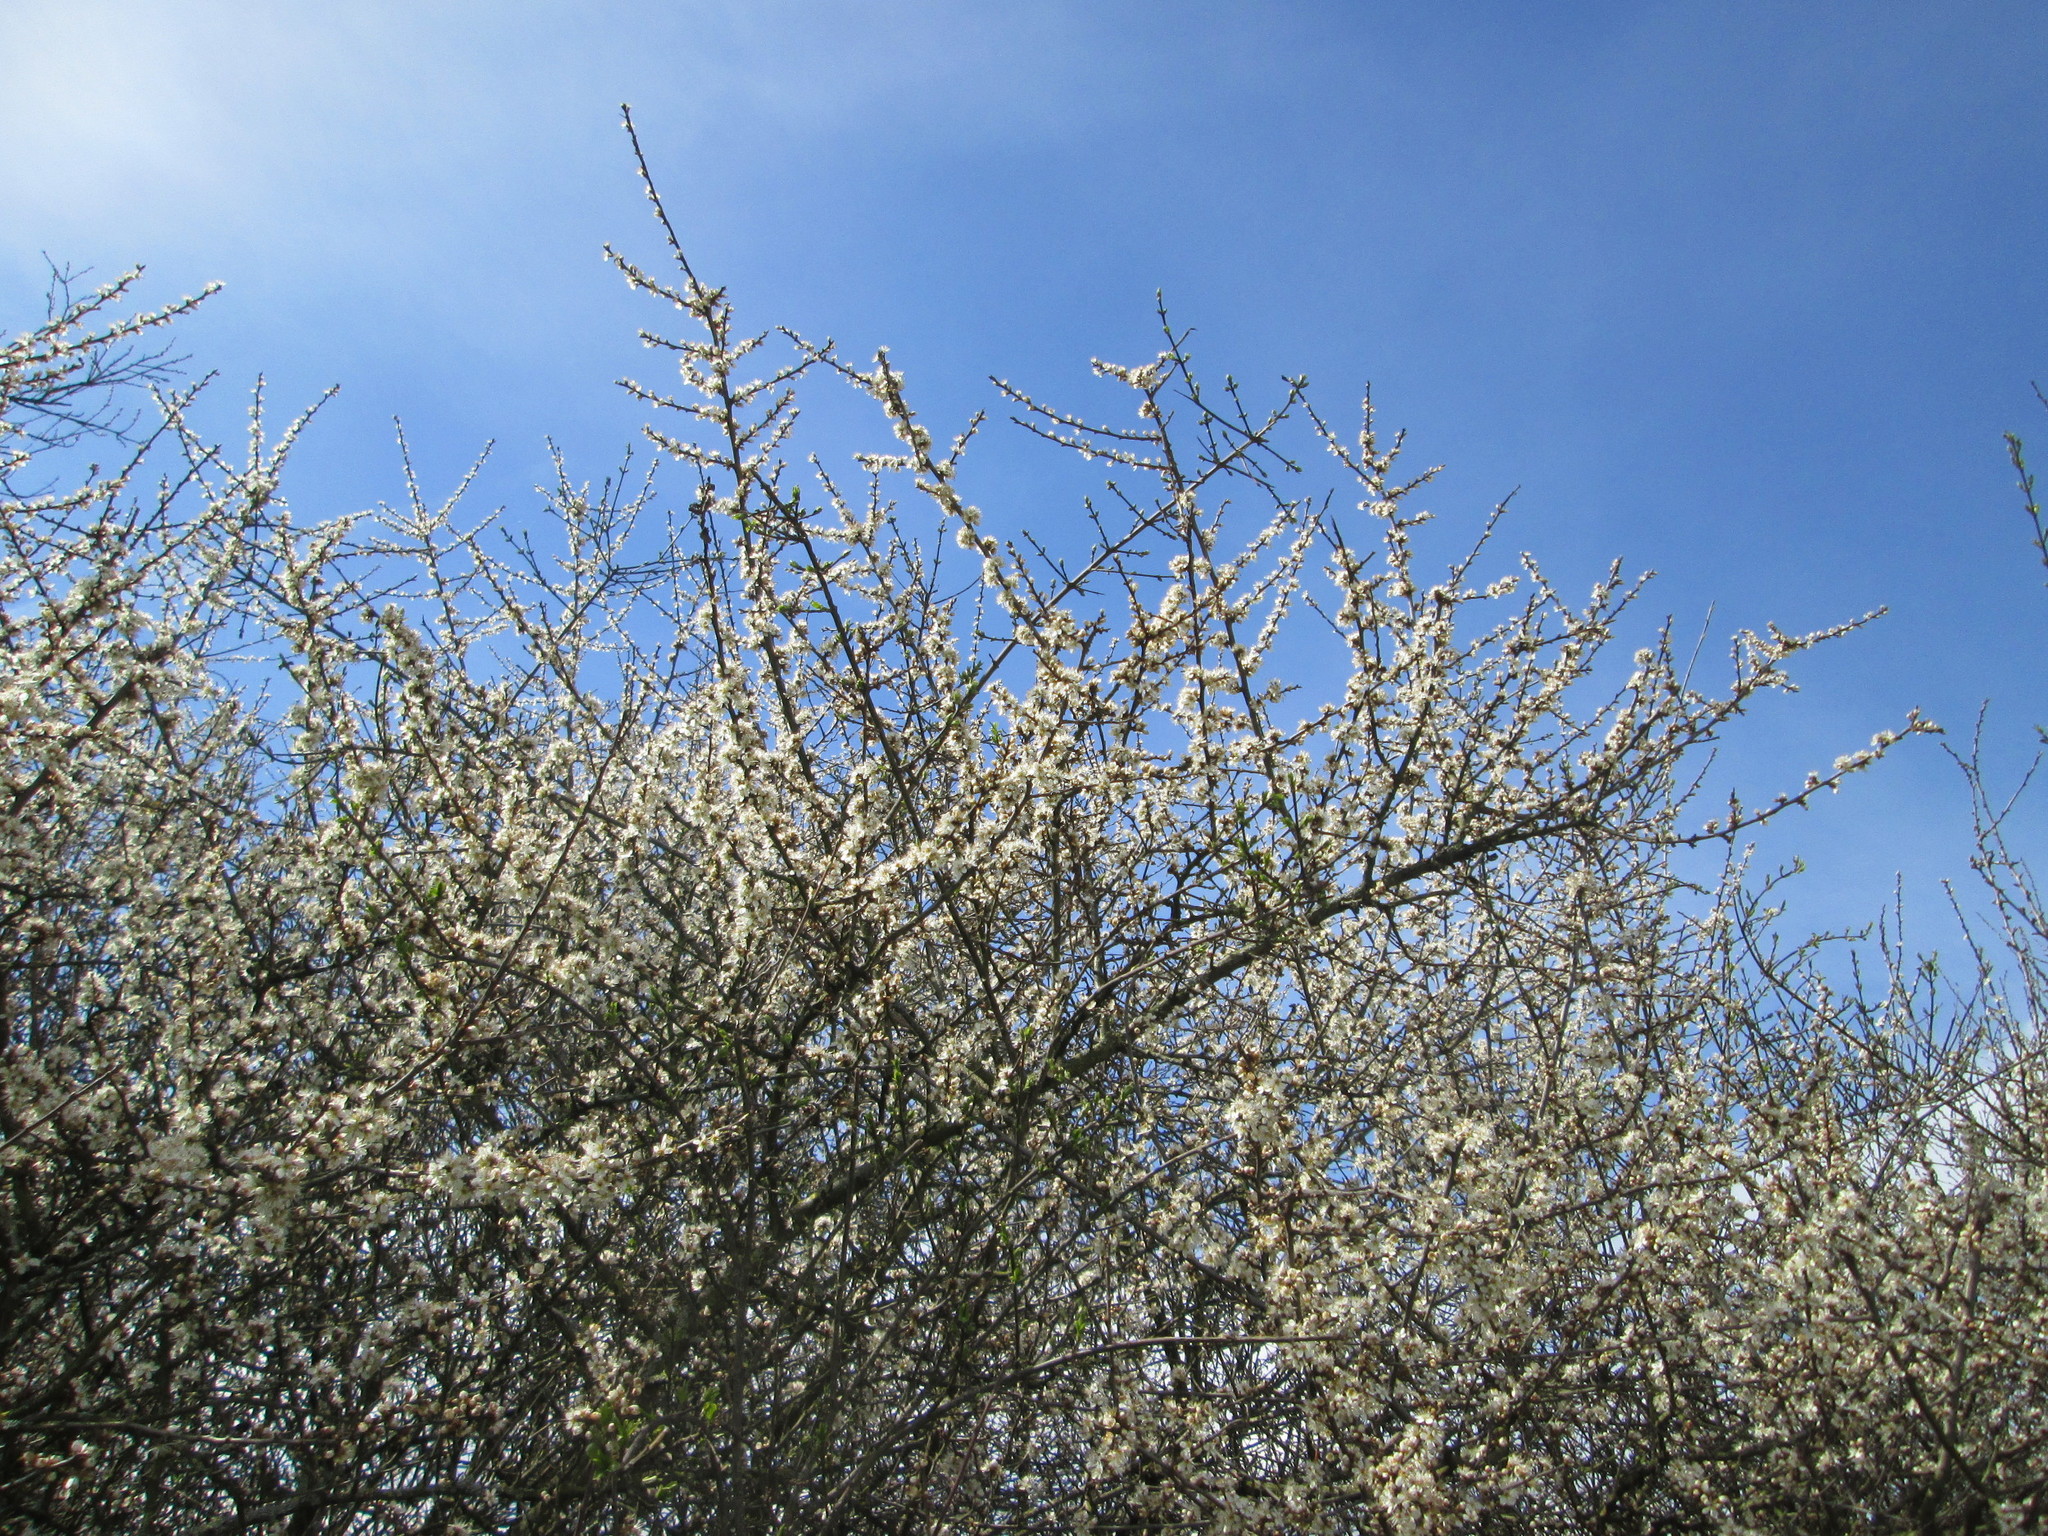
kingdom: Plantae
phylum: Tracheophyta
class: Magnoliopsida
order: Rosales
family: Rosaceae
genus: Prunus
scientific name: Prunus spinosa
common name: Blackthorn
